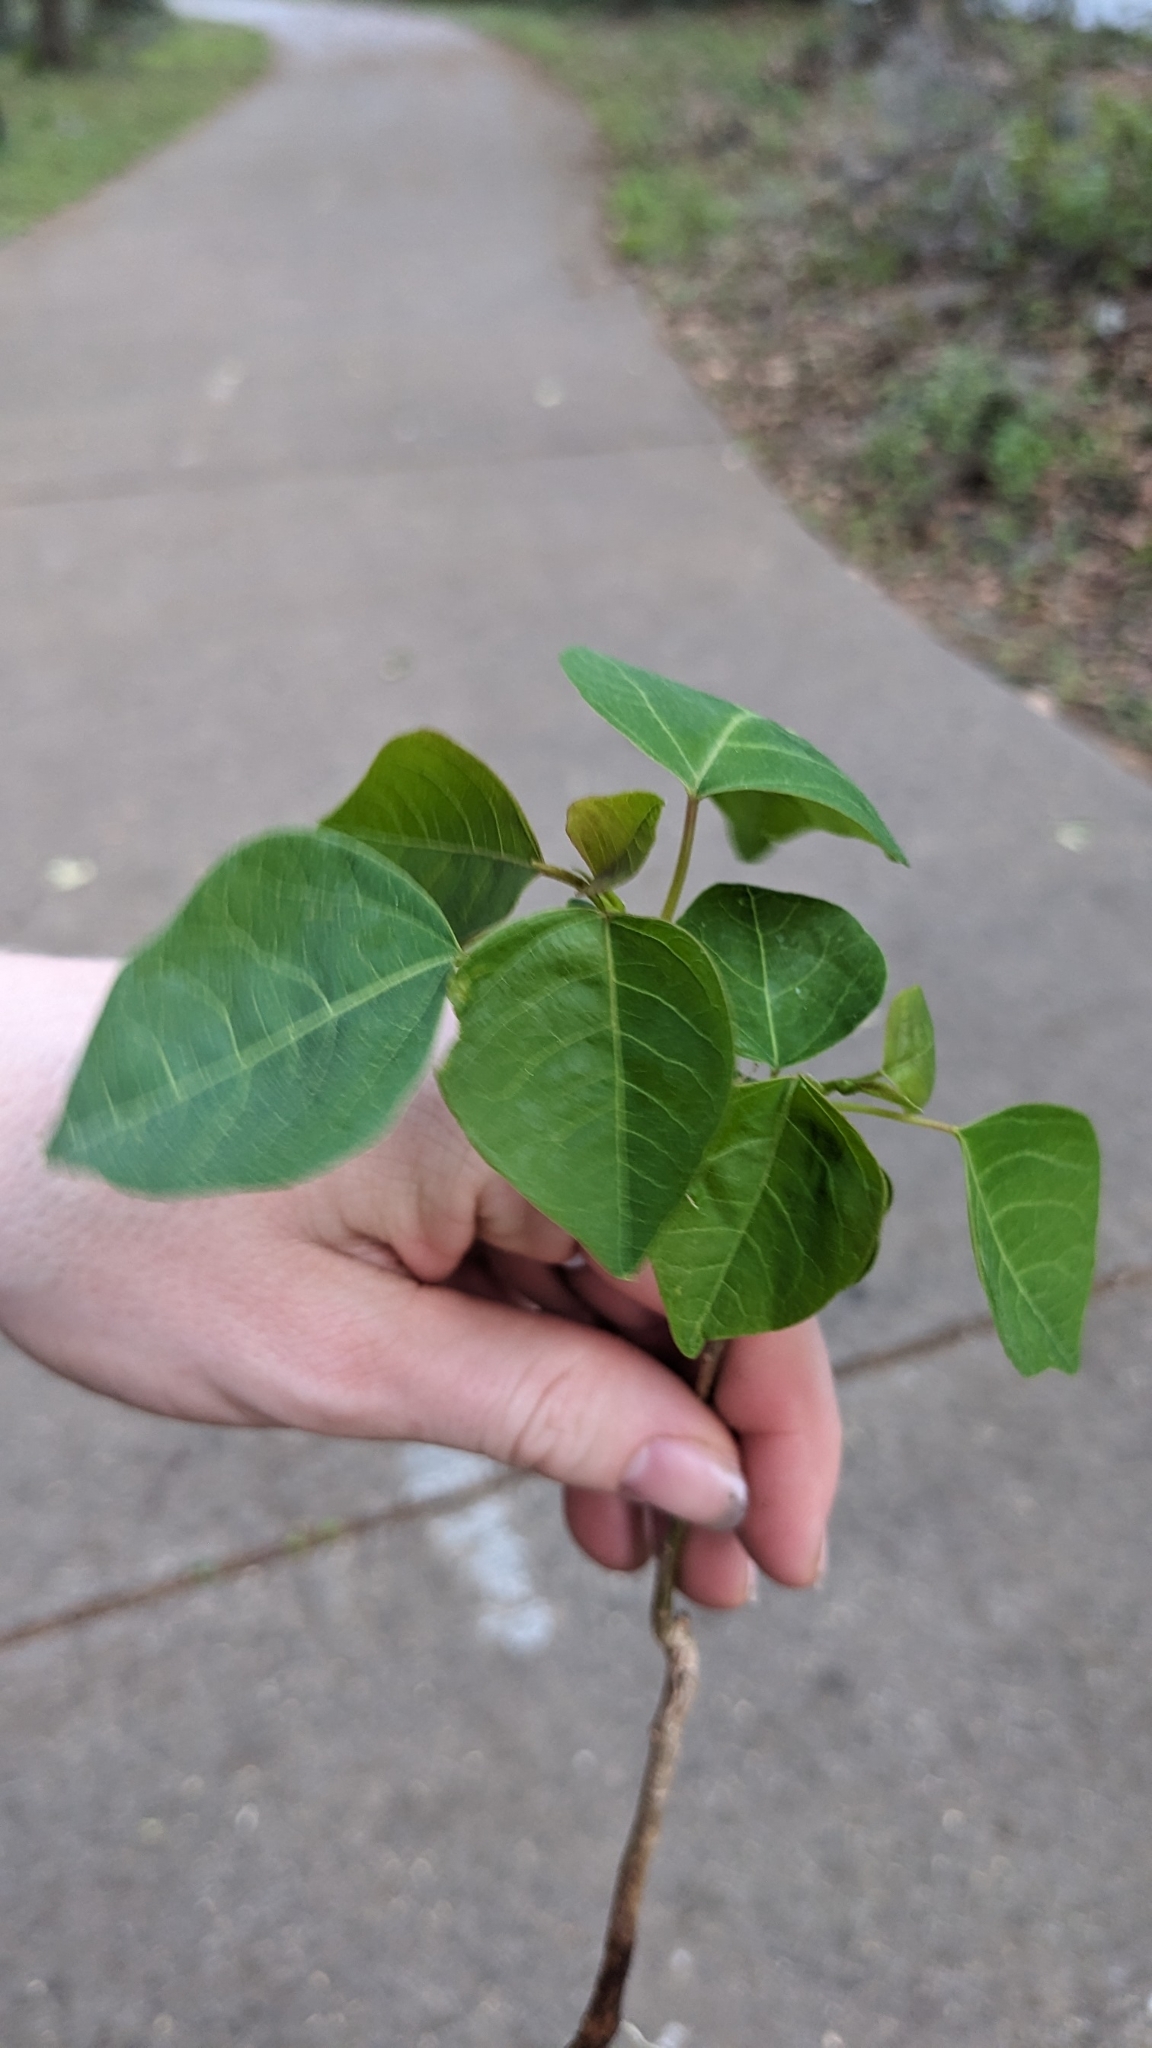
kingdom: Plantae
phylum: Tracheophyta
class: Magnoliopsida
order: Malpighiales
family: Euphorbiaceae
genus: Triadica
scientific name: Triadica sebifera
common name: Chinese tallow
